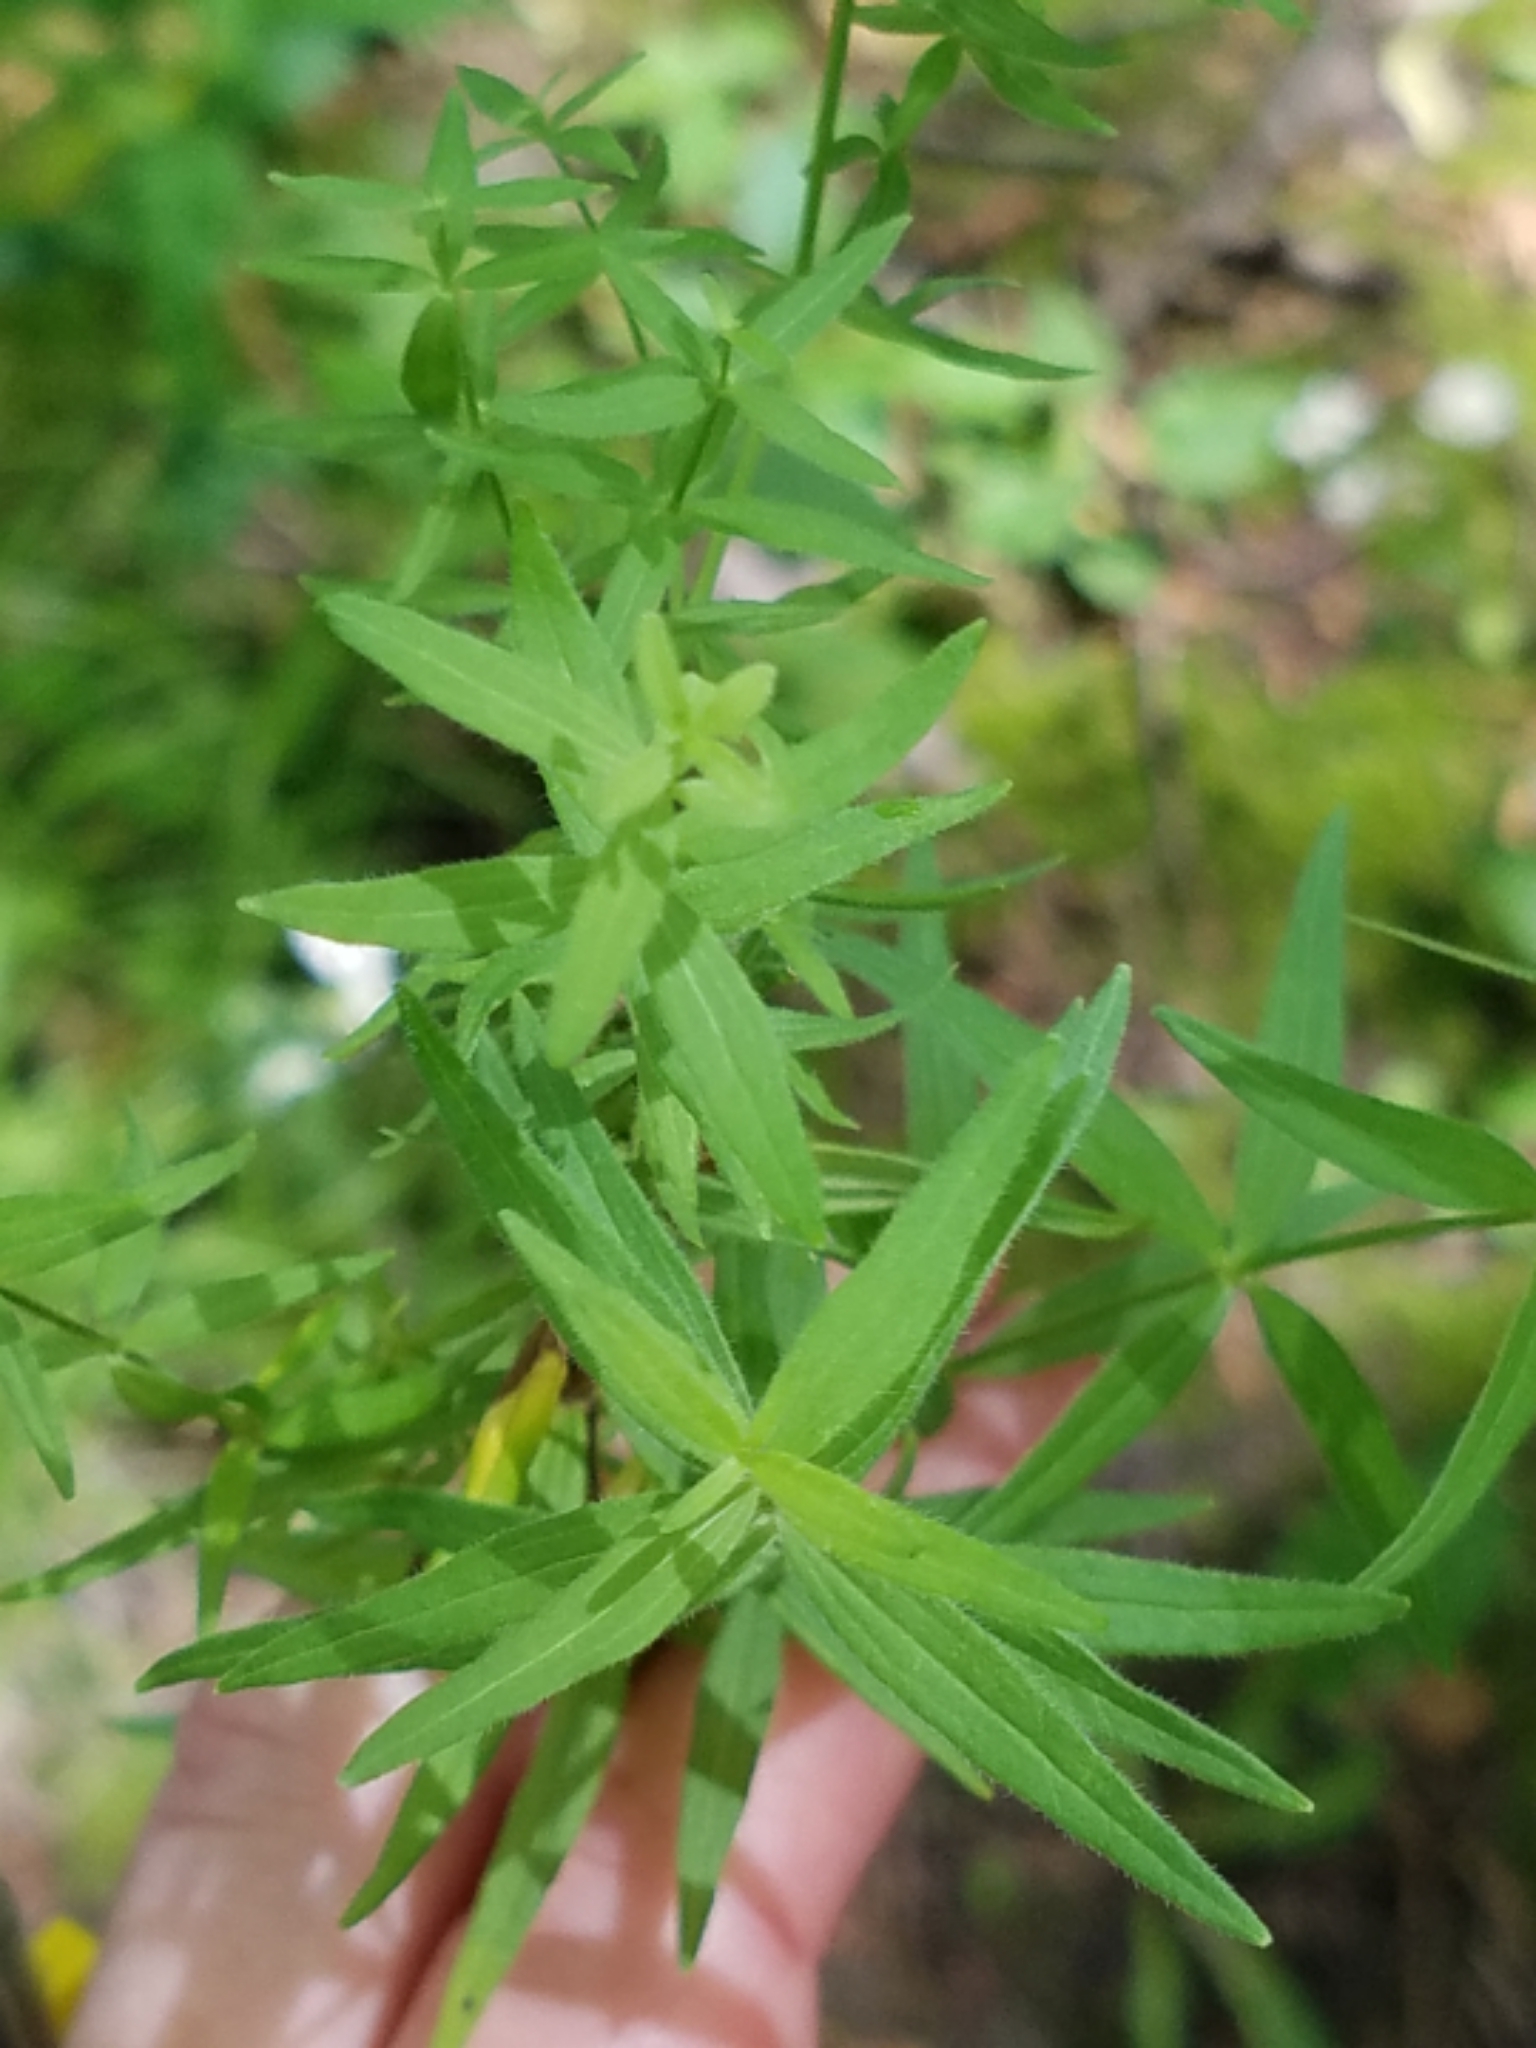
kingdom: Plantae
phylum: Tracheophyta
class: Magnoliopsida
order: Gentianales
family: Rubiaceae
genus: Galium
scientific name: Galium boreale
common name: Northern bedstraw
